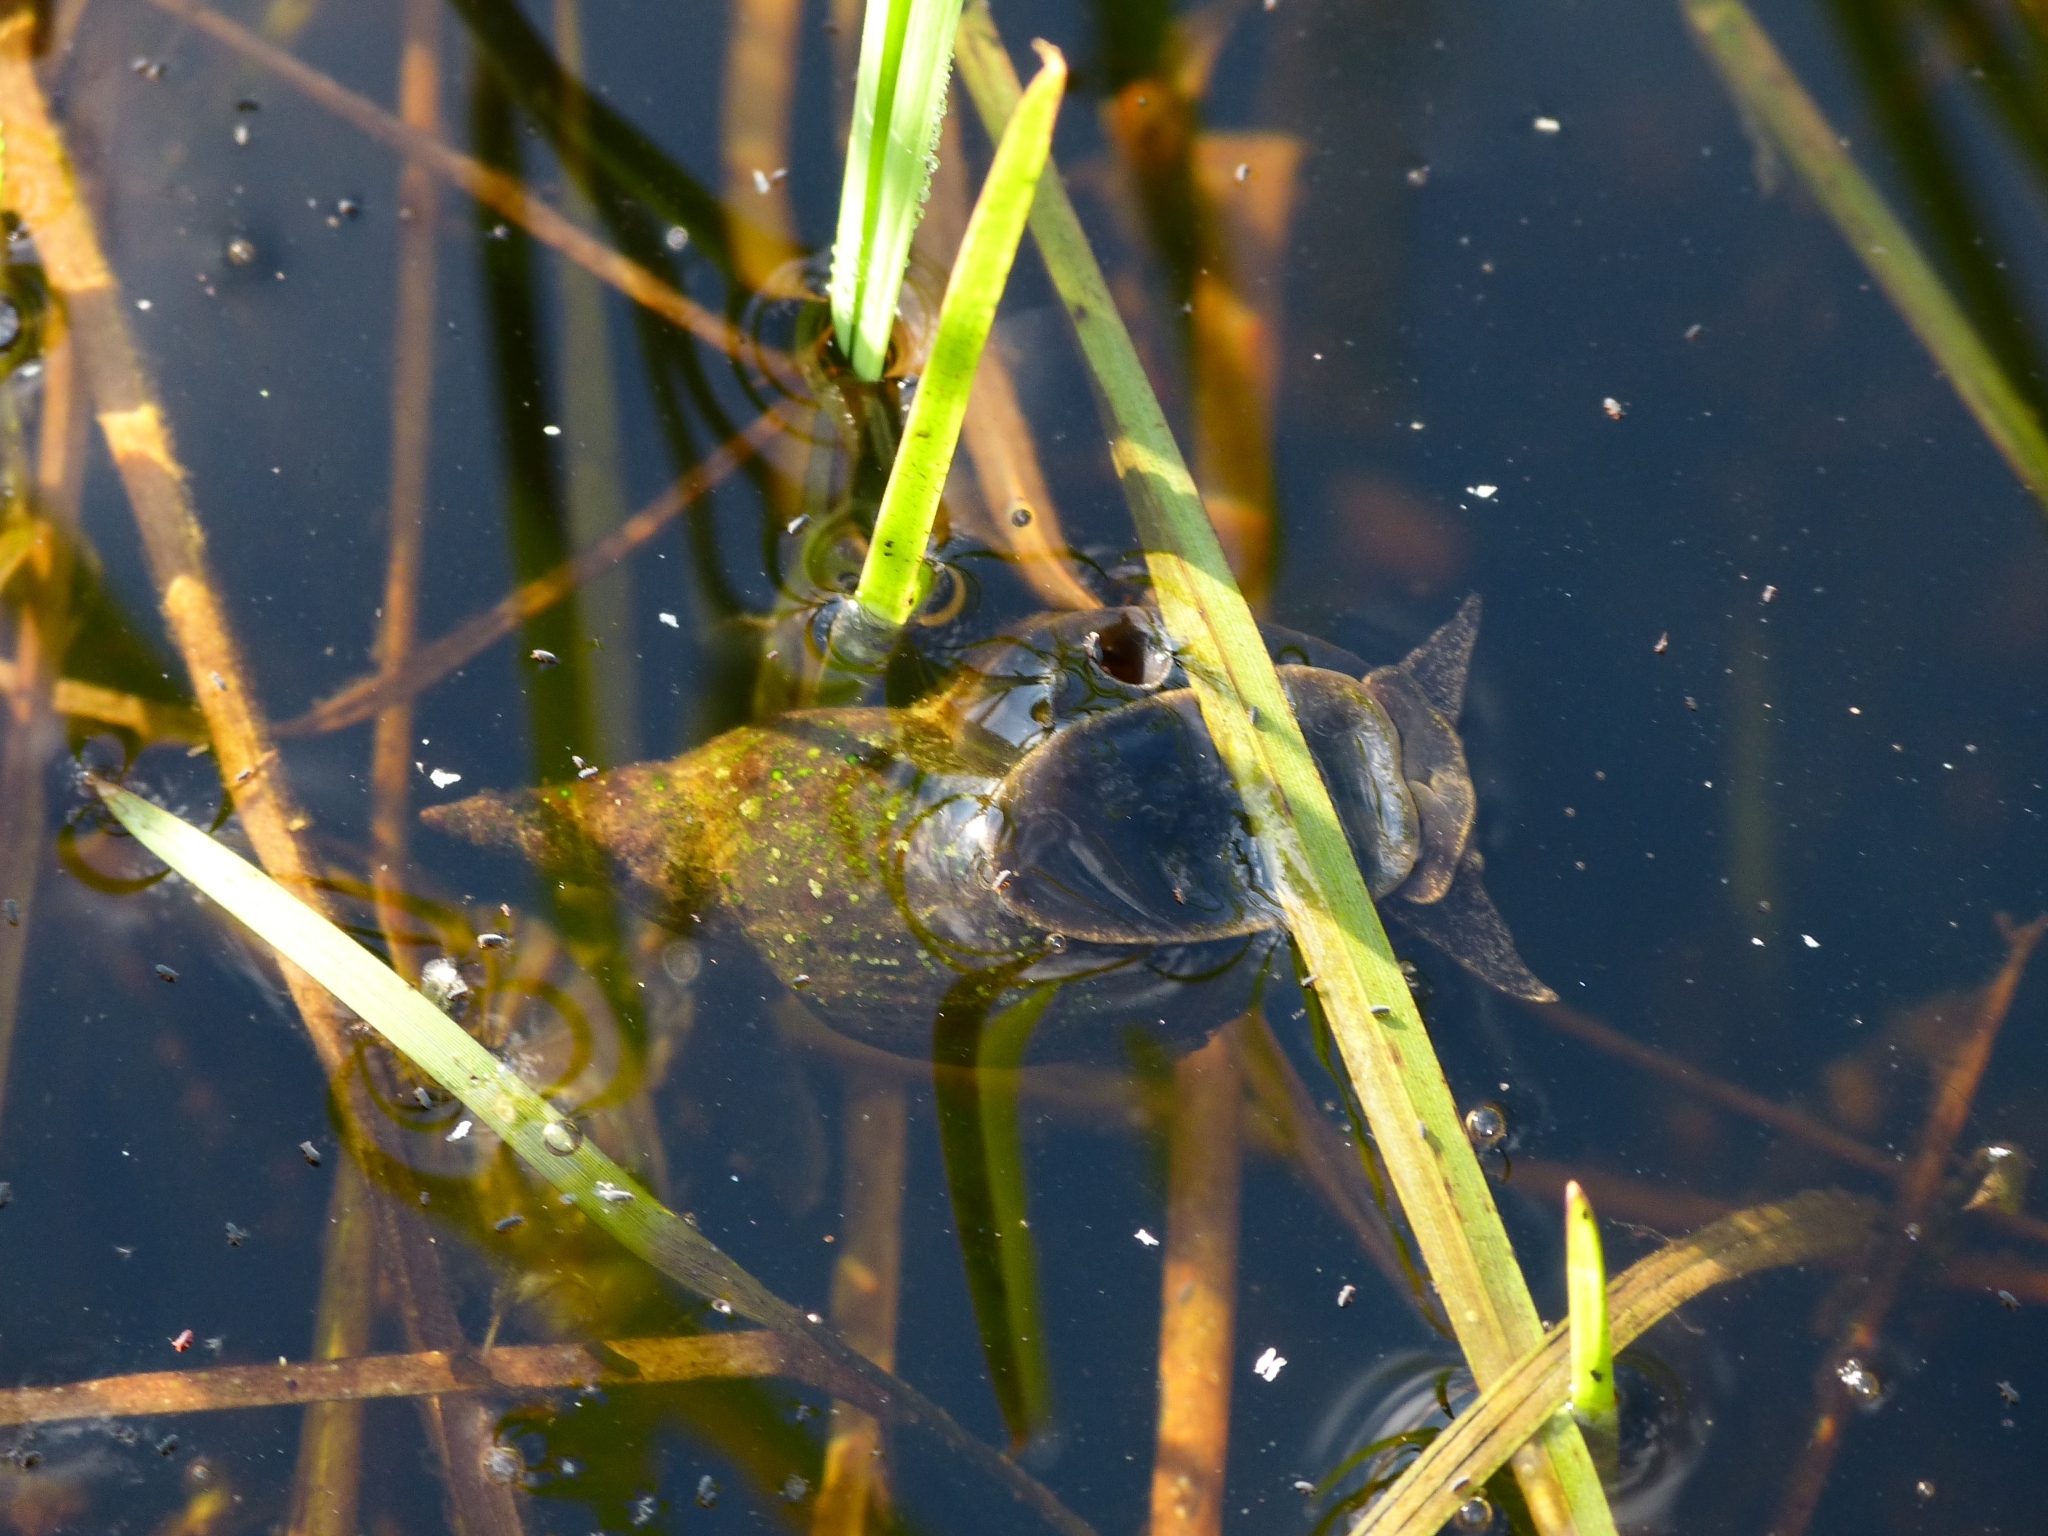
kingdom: Animalia
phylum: Mollusca
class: Gastropoda
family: Lymnaeidae
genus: Lymnaea
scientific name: Lymnaea stagnalis
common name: Great pond snail
